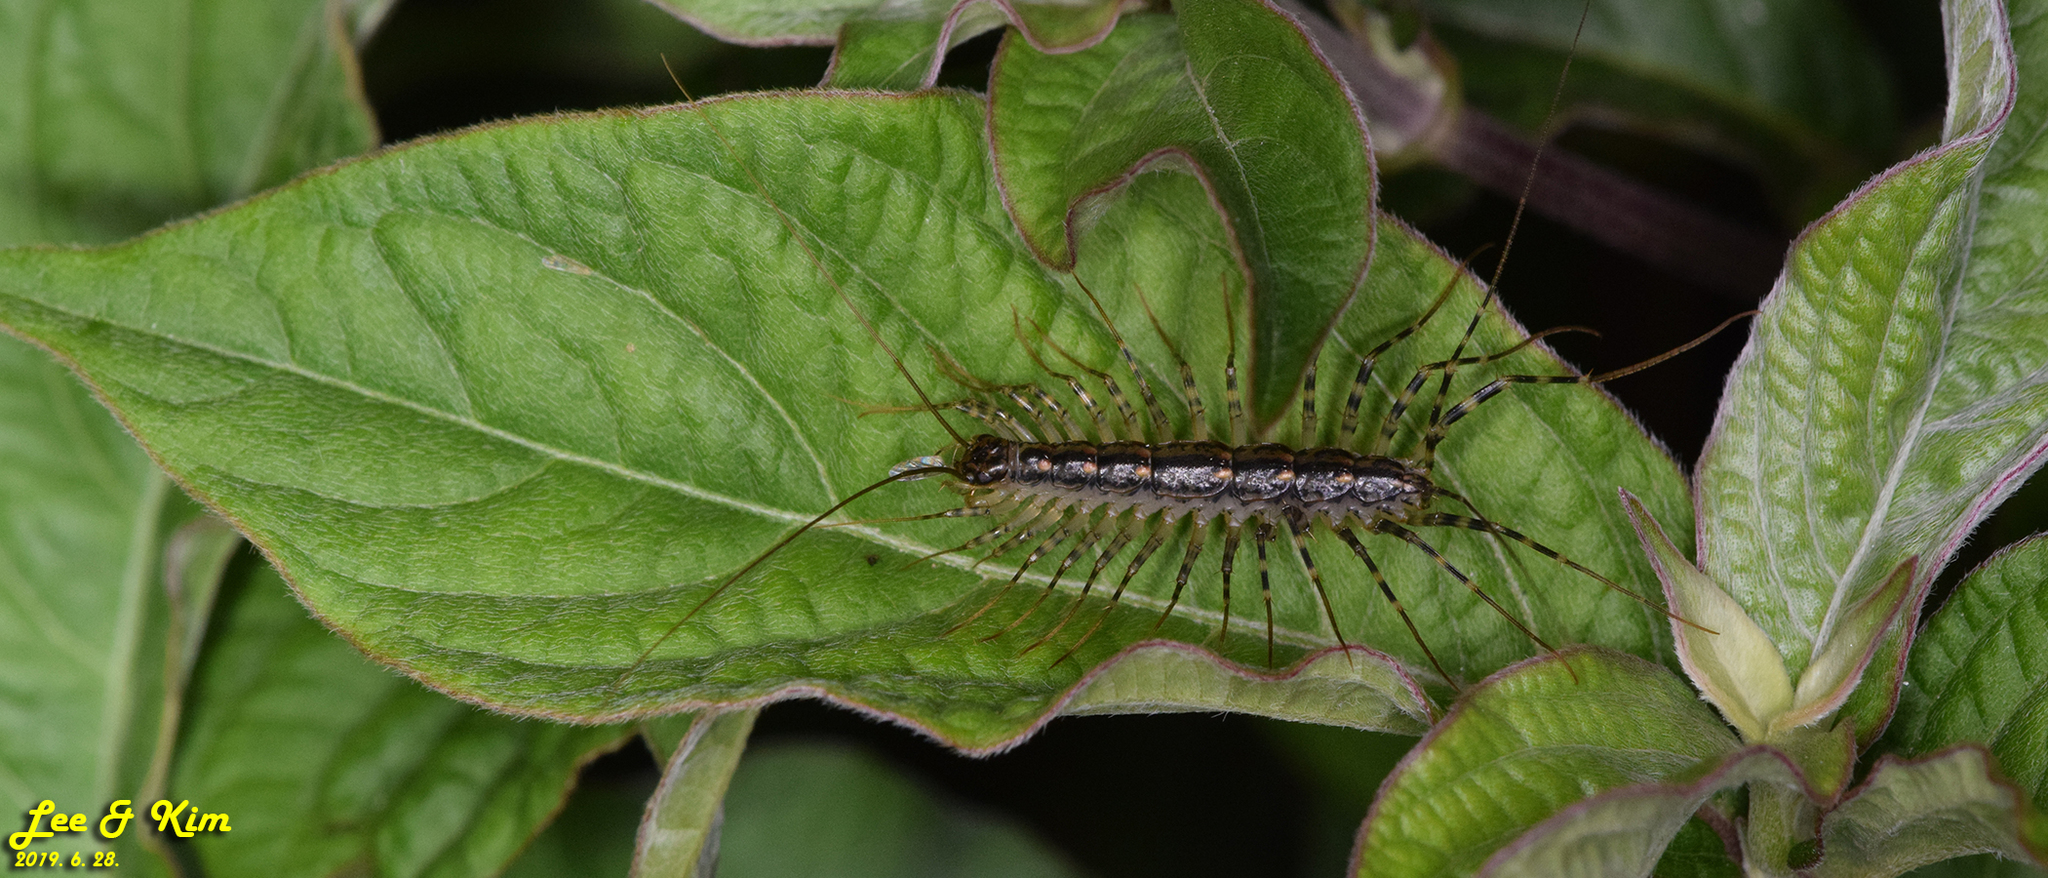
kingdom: Animalia
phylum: Arthropoda
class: Chilopoda
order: Scutigeromorpha
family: Scutigeridae
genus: Thereuonema
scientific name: Thereuonema tuberculata
